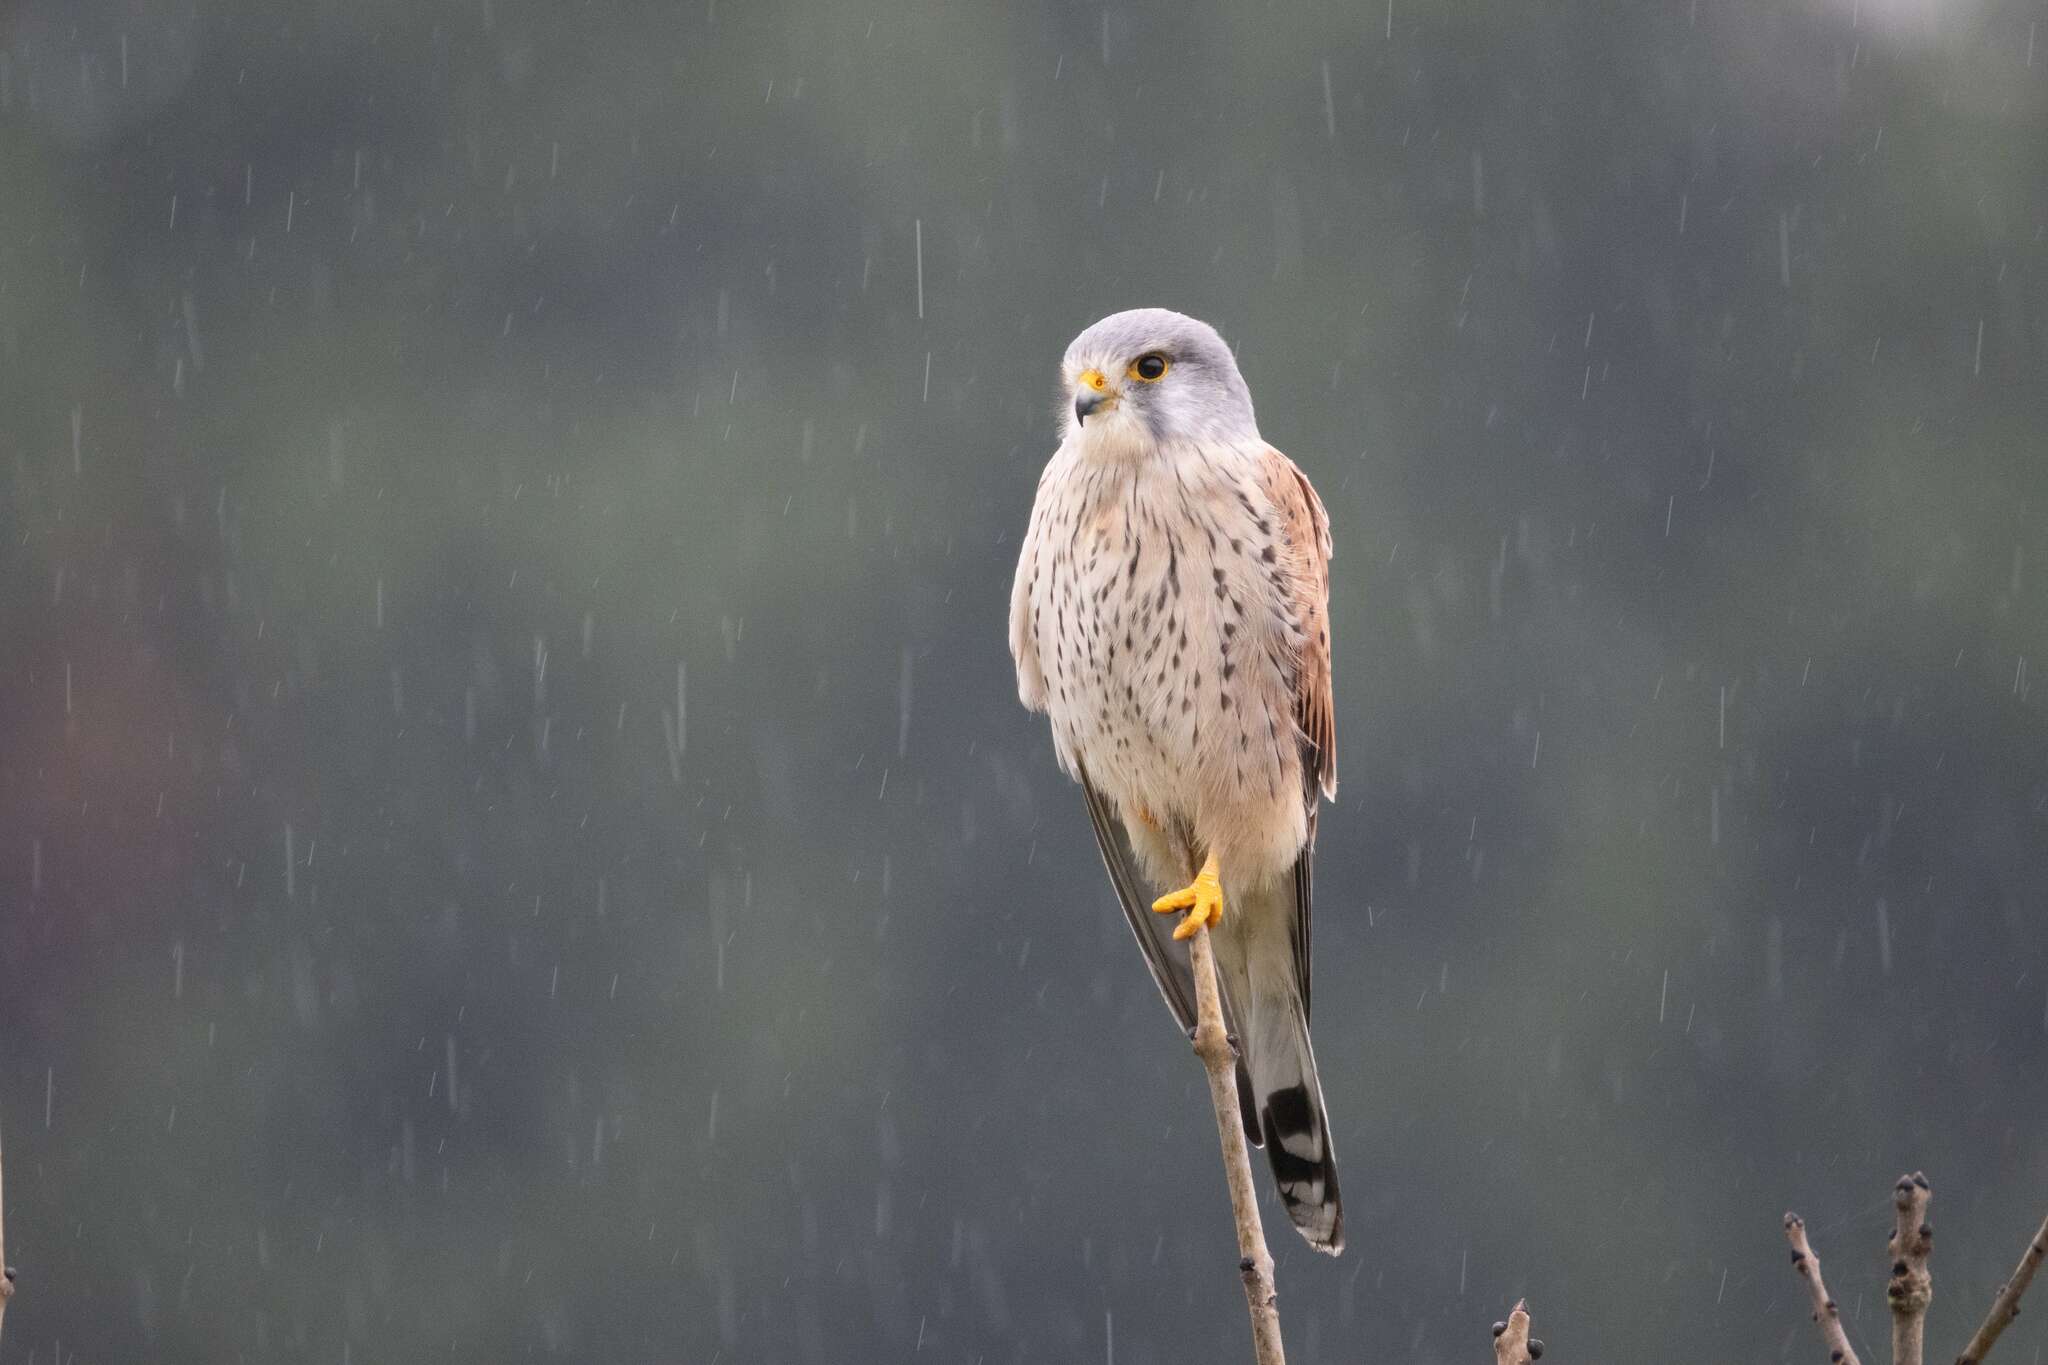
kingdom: Animalia
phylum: Chordata
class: Aves
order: Falconiformes
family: Falconidae
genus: Falco
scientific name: Falco tinnunculus
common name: Common kestrel
